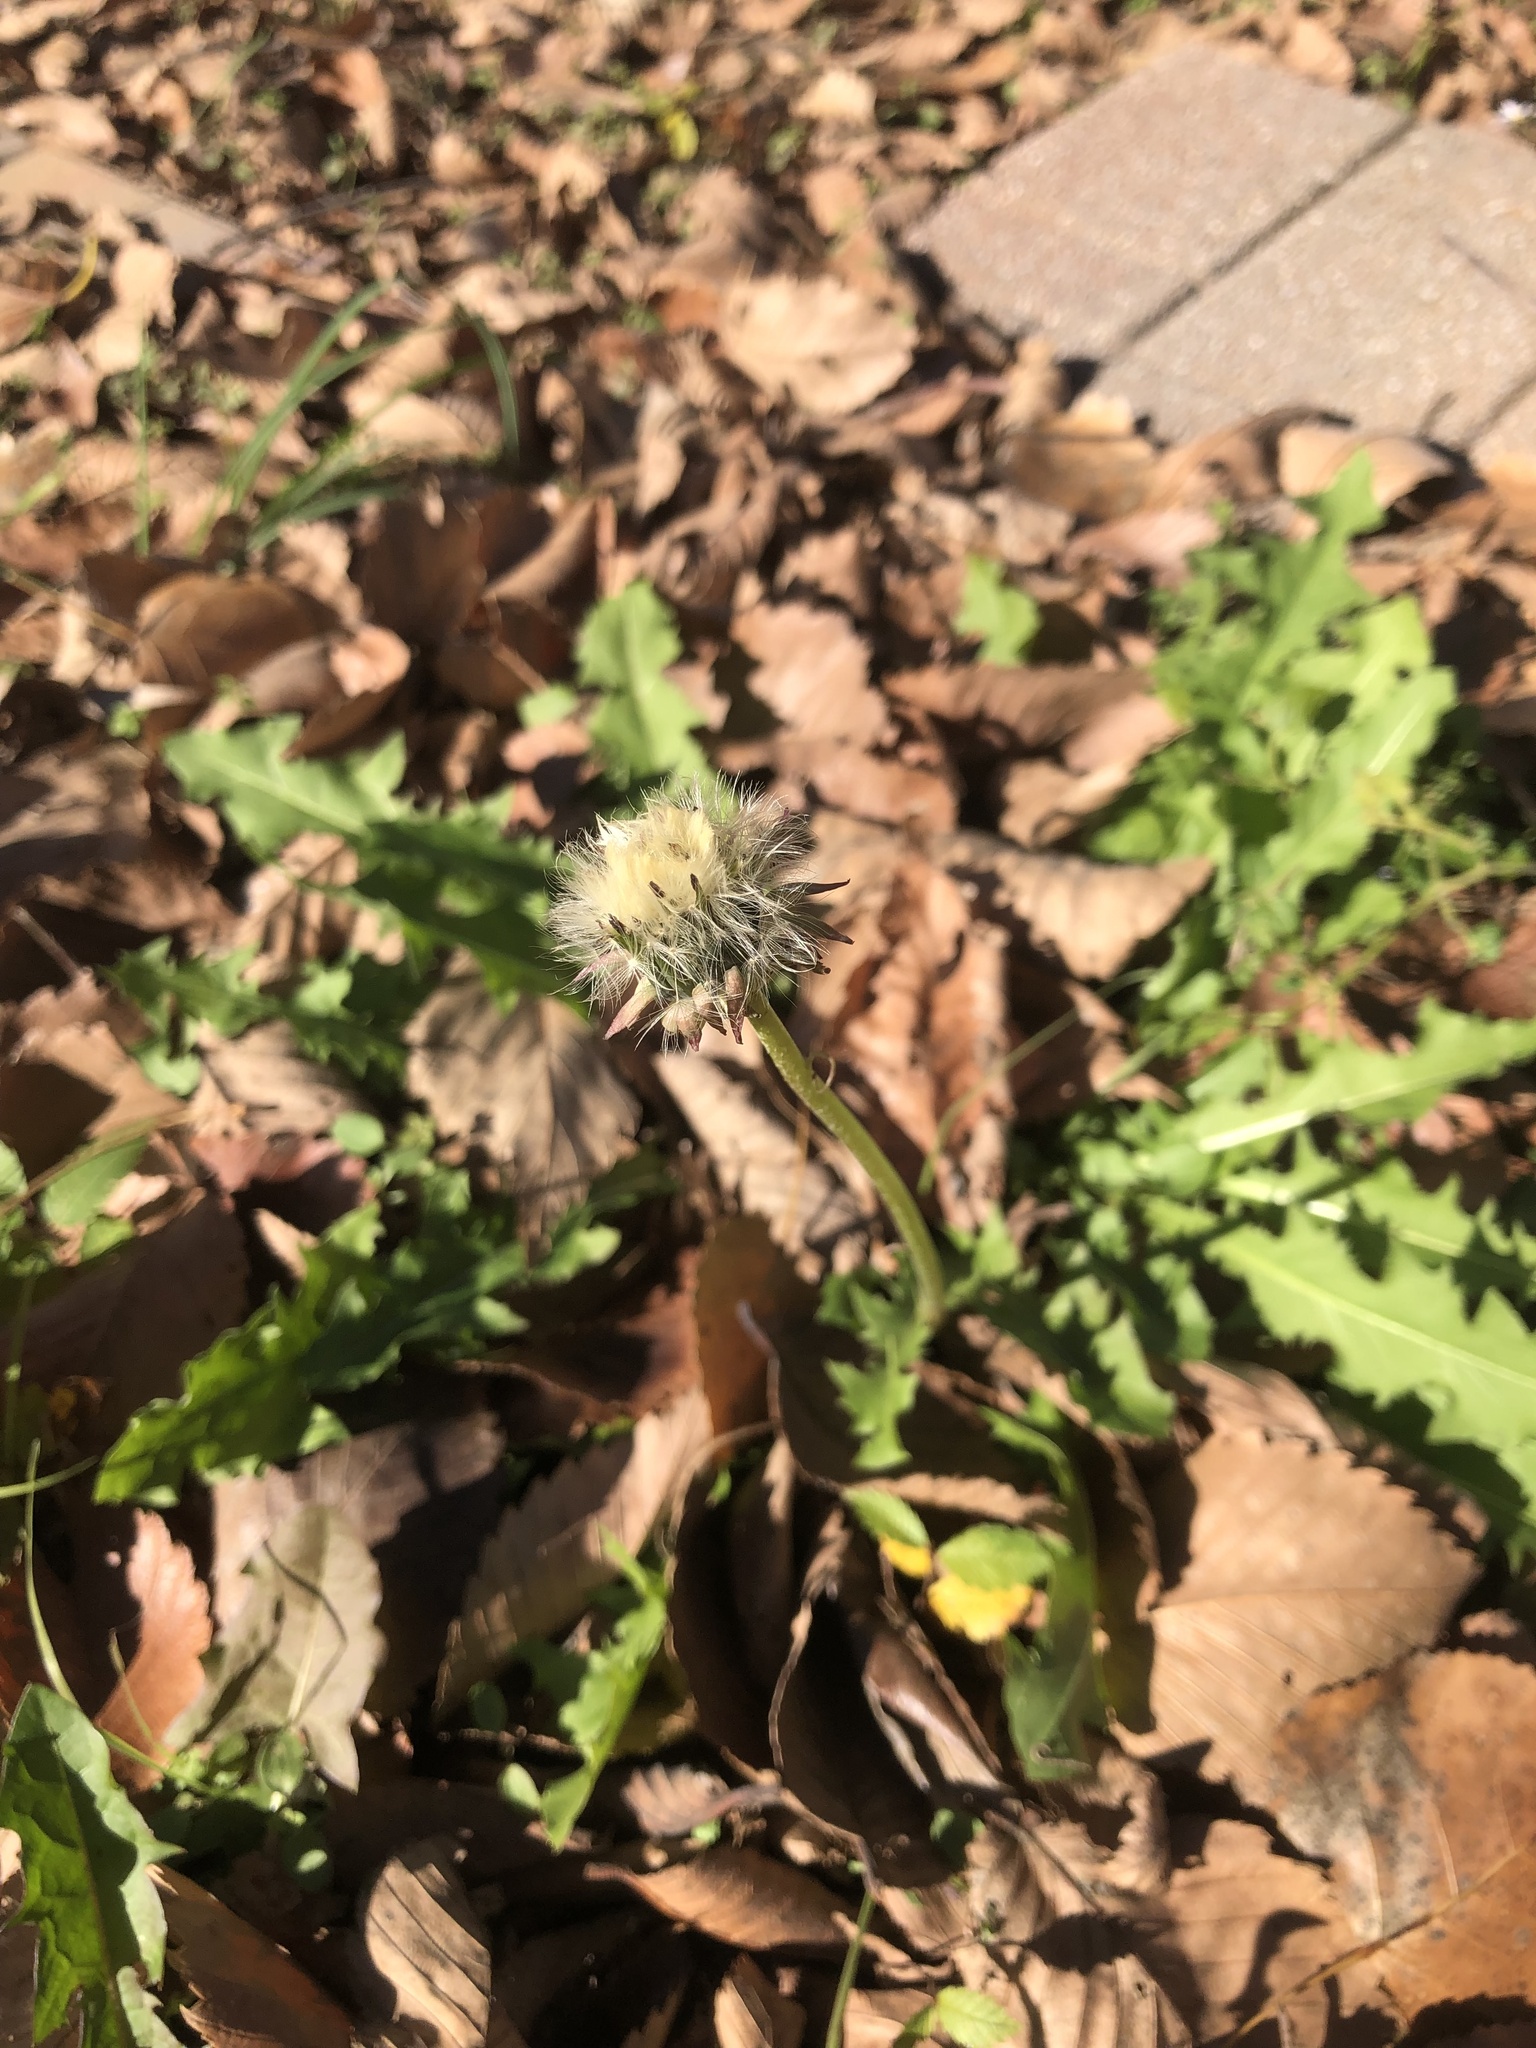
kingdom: Plantae
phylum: Tracheophyta
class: Magnoliopsida
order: Asterales
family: Asteraceae
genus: Taraxacum
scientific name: Taraxacum
